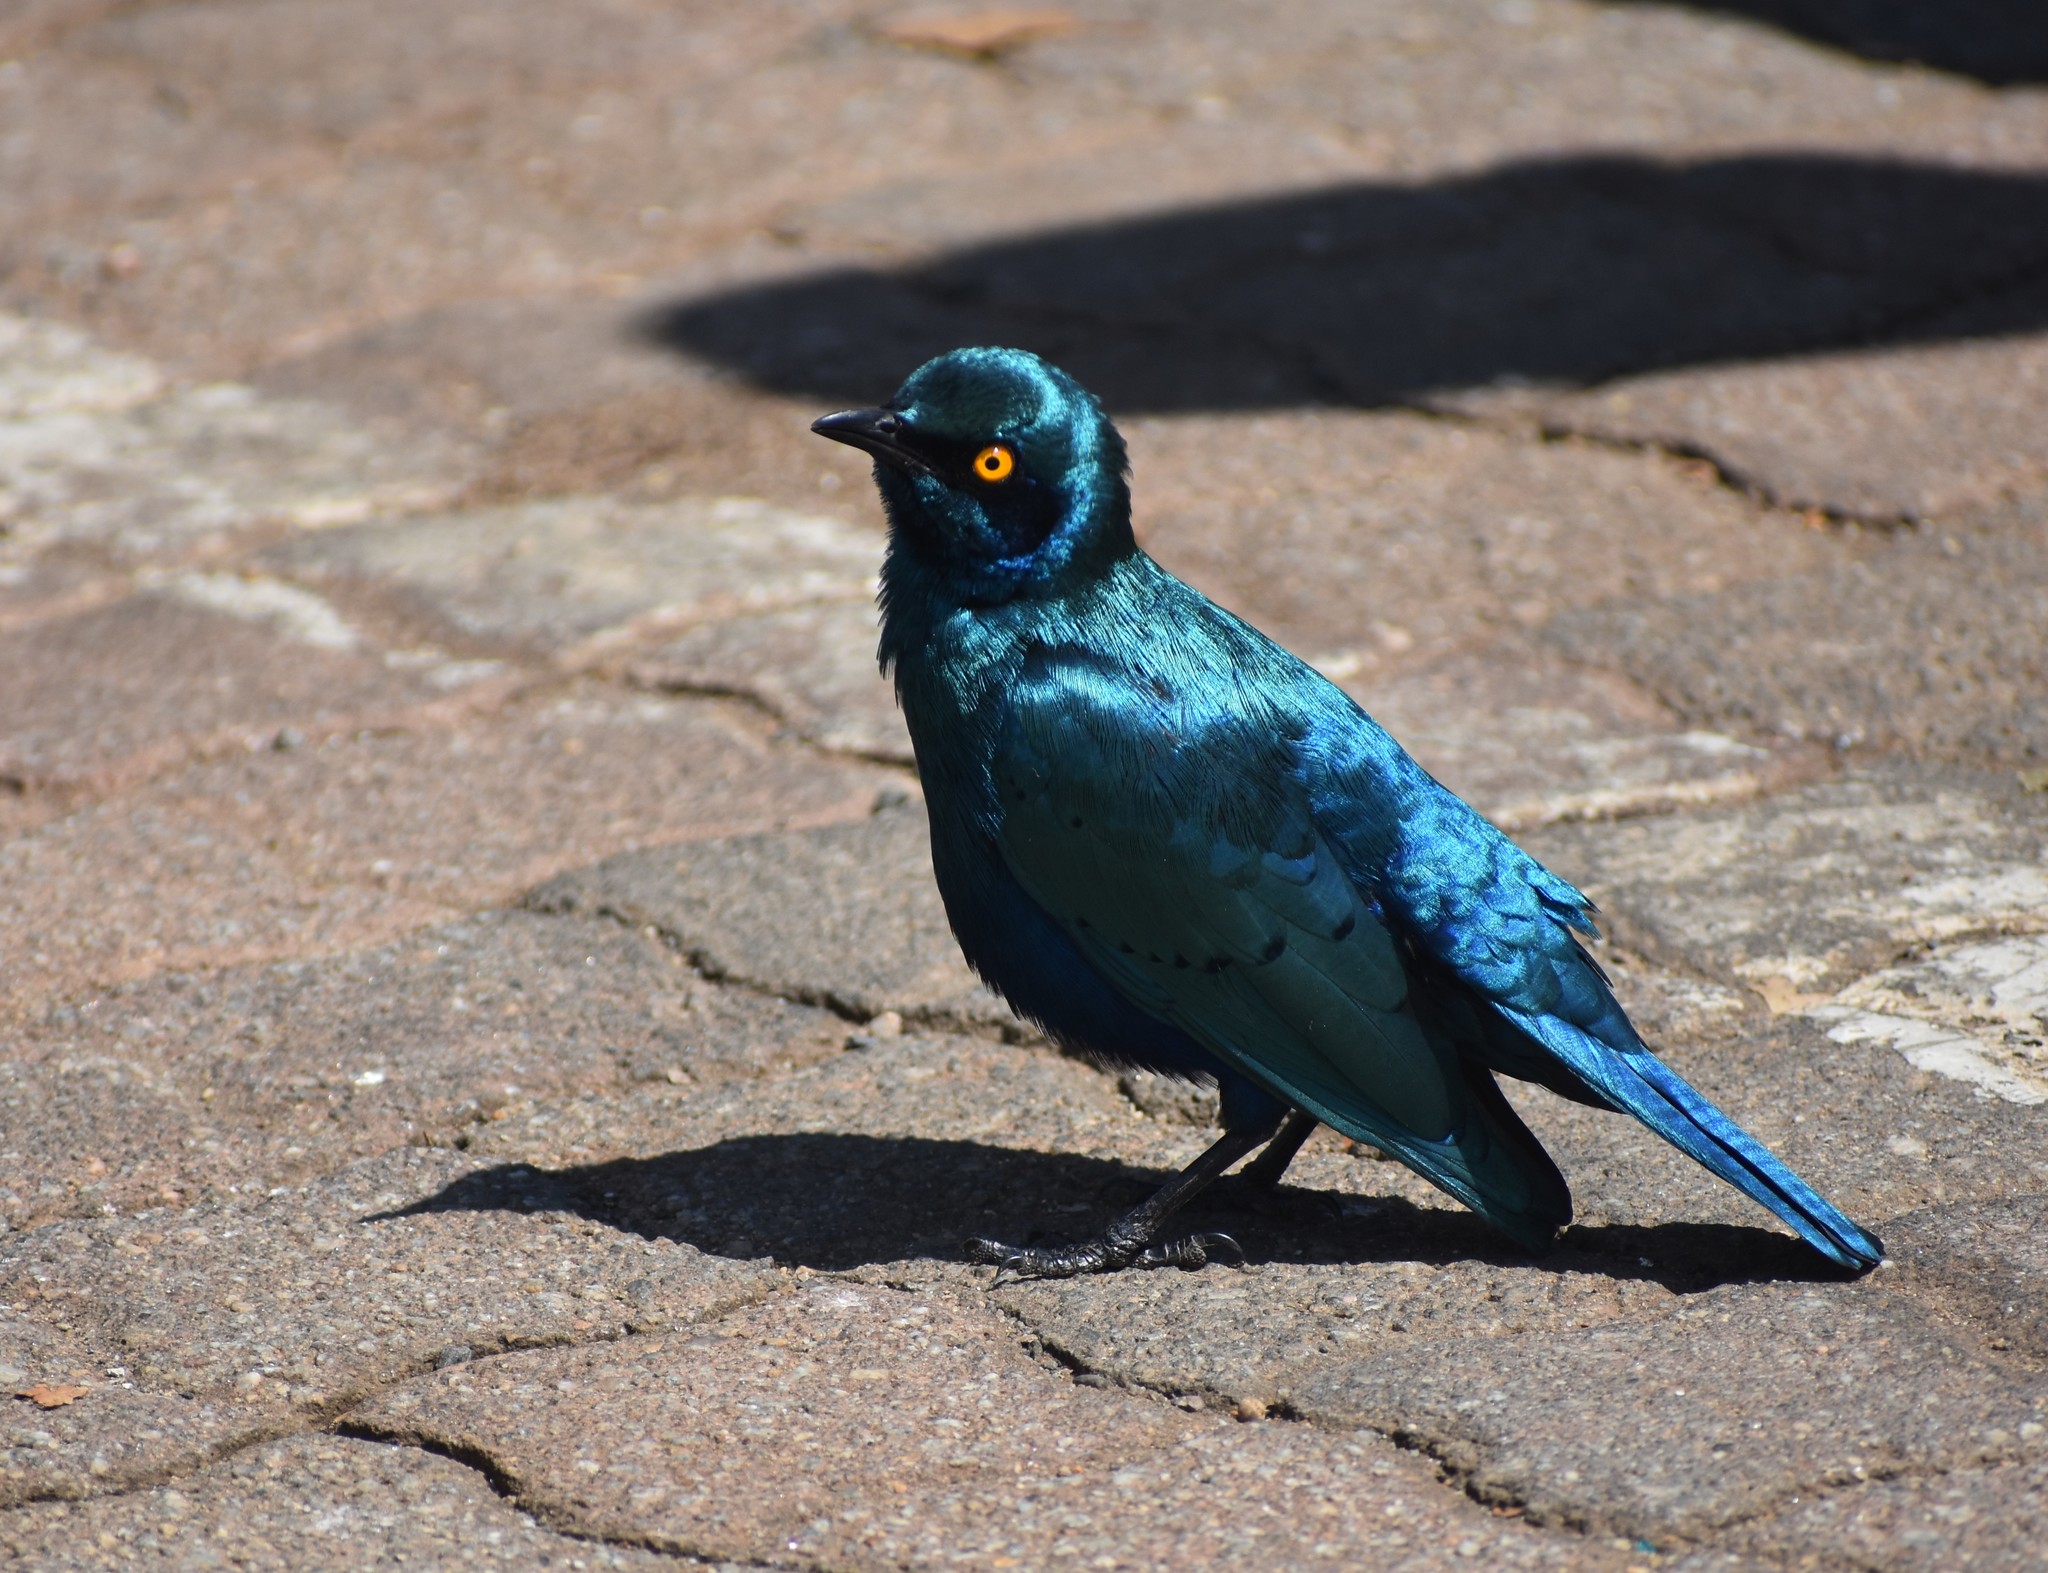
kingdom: Animalia
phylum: Chordata
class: Aves
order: Passeriformes
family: Sturnidae
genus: Lamprotornis
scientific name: Lamprotornis chalybaeus
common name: Greater blue-eared starling
